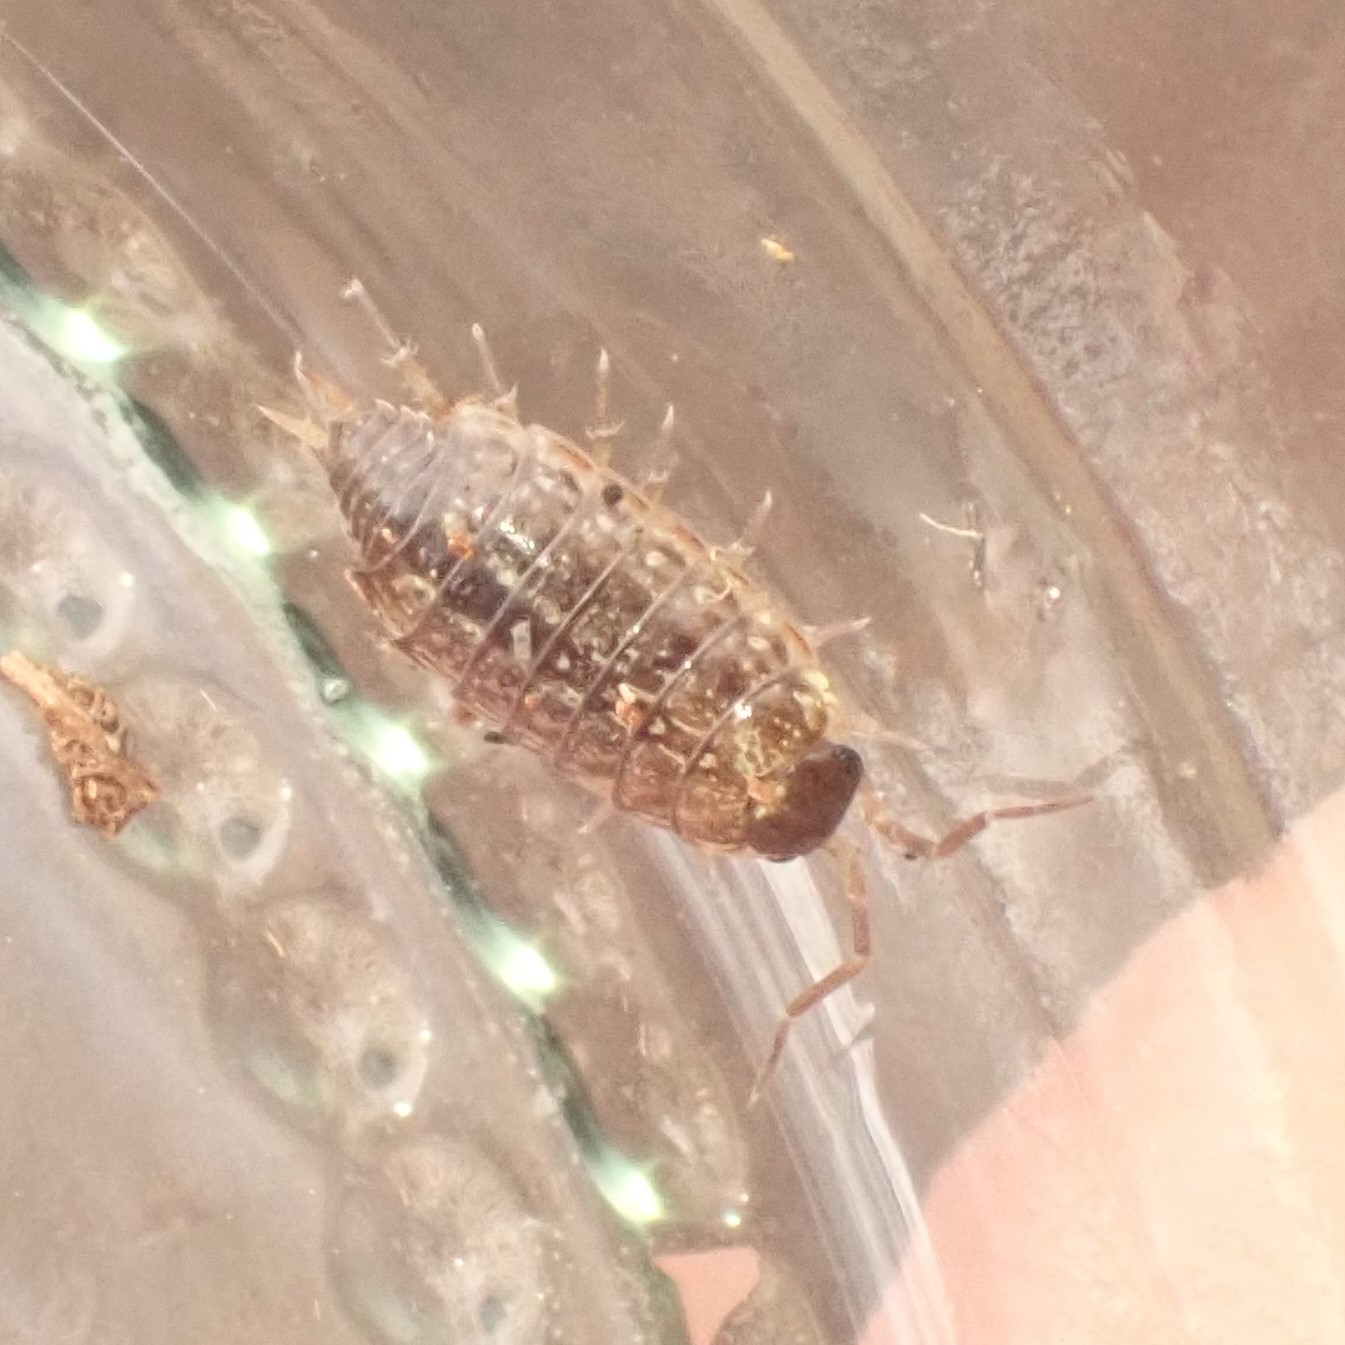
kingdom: Animalia
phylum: Arthropoda
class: Malacostraca
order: Isopoda
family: Philosciidae
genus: Philoscia
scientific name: Philoscia muscorum
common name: Common striped woodlouse
